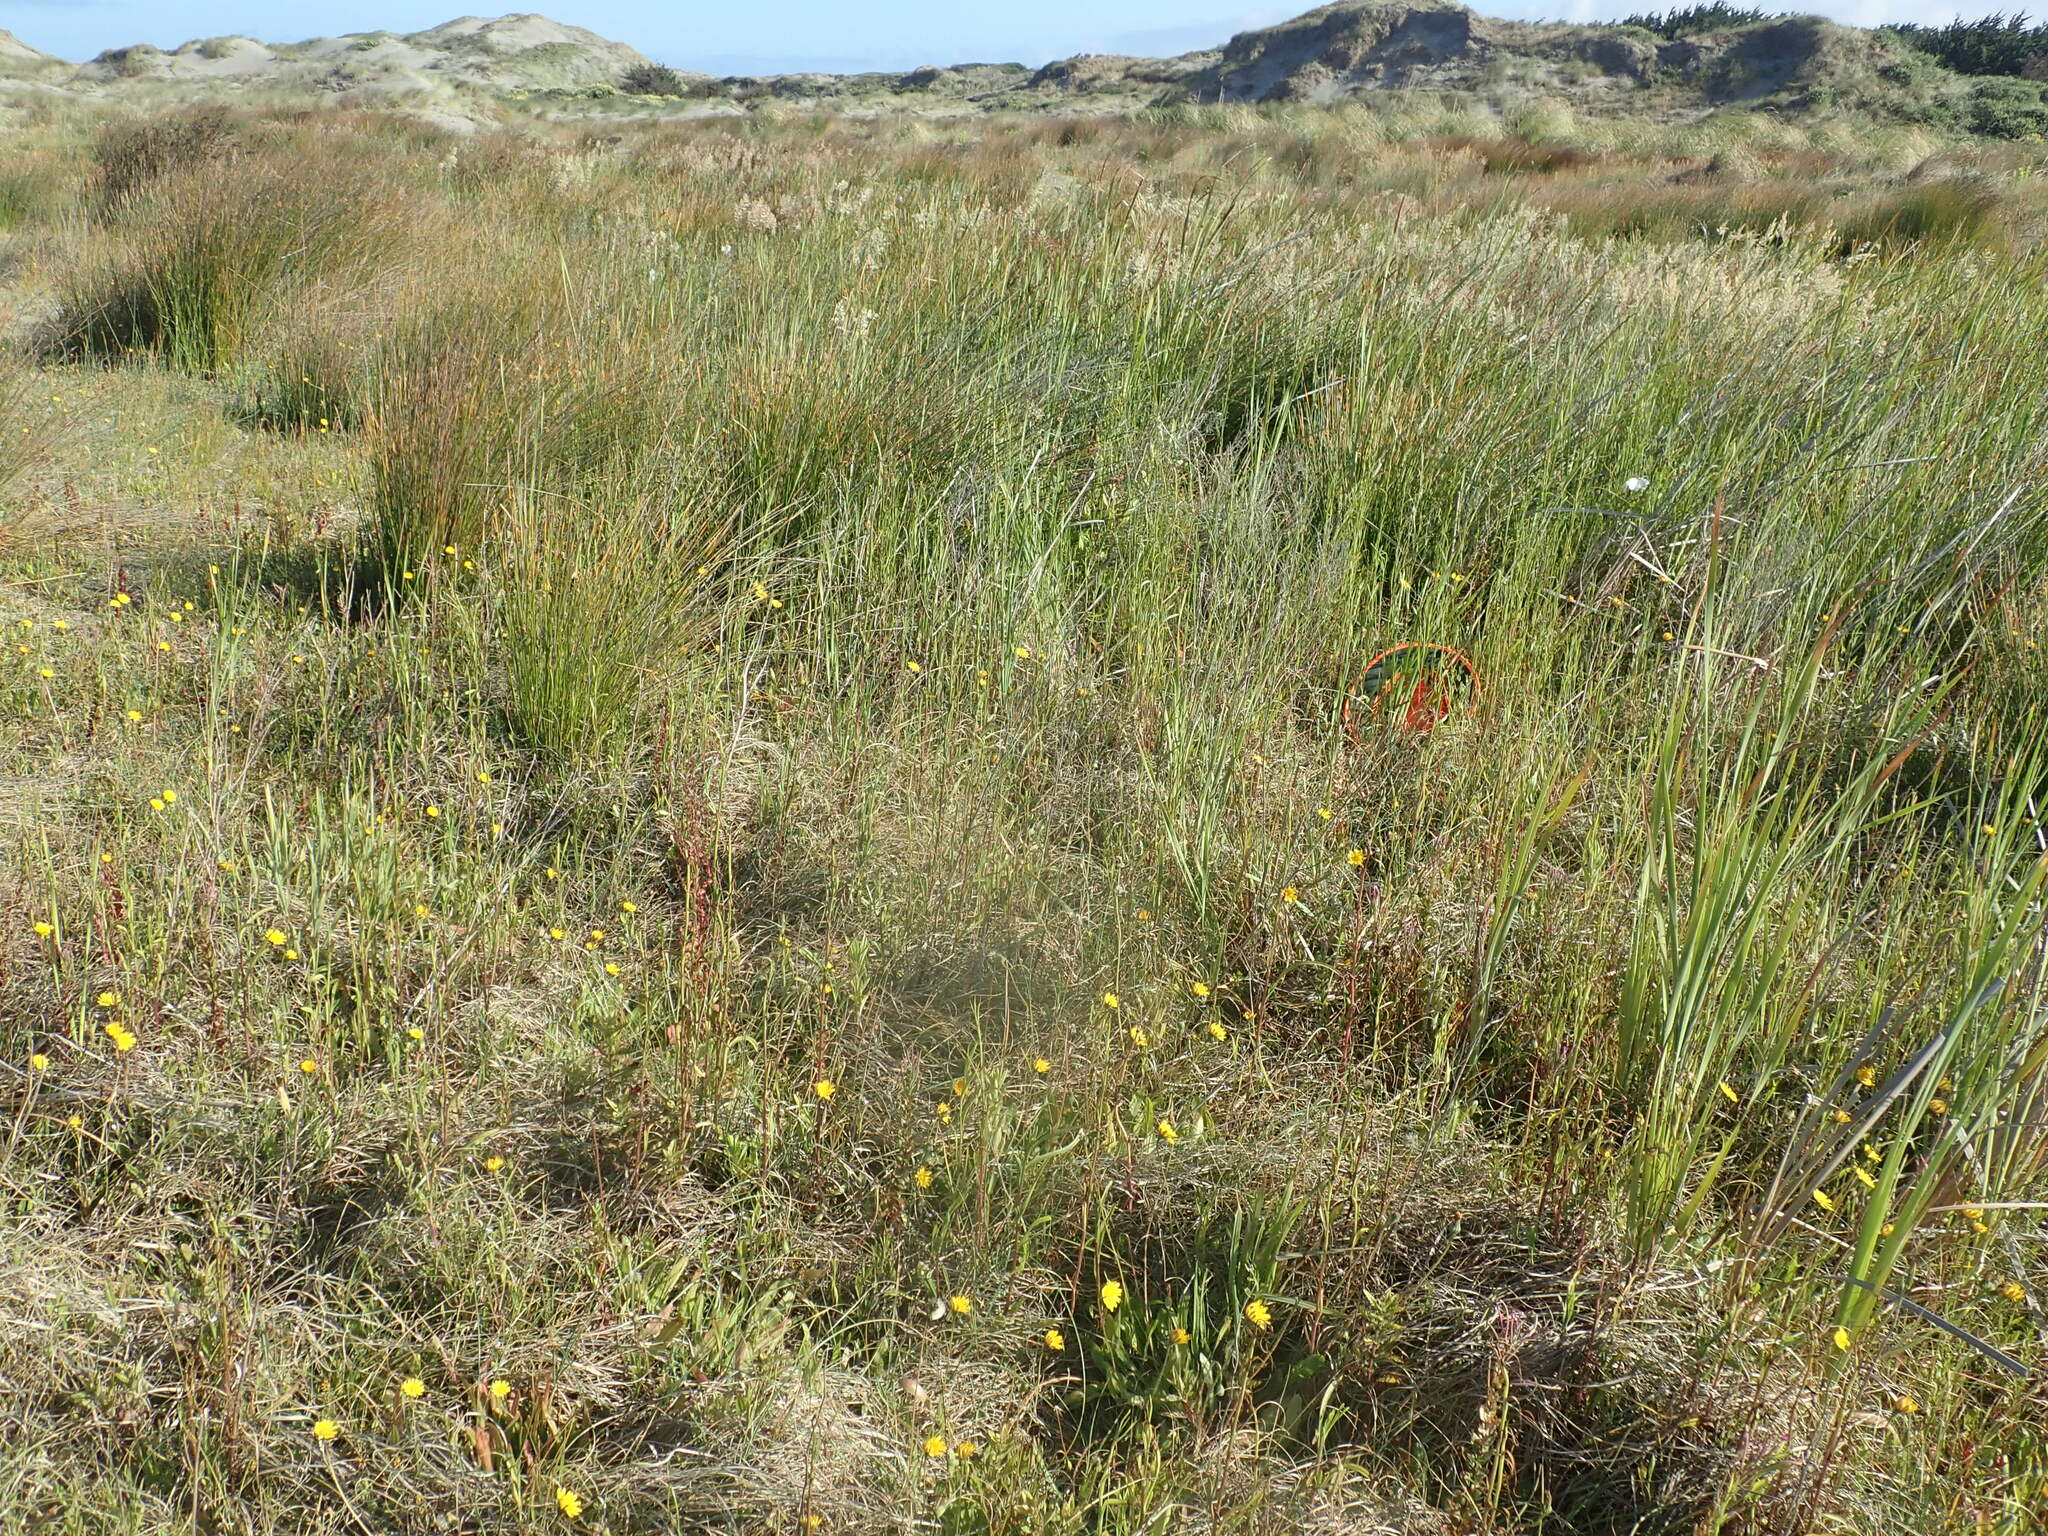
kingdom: Plantae
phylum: Tracheophyta
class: Magnoliopsida
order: Myrtales
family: Onagraceae
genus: Epilobium
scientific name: Epilobium billardiereanum
